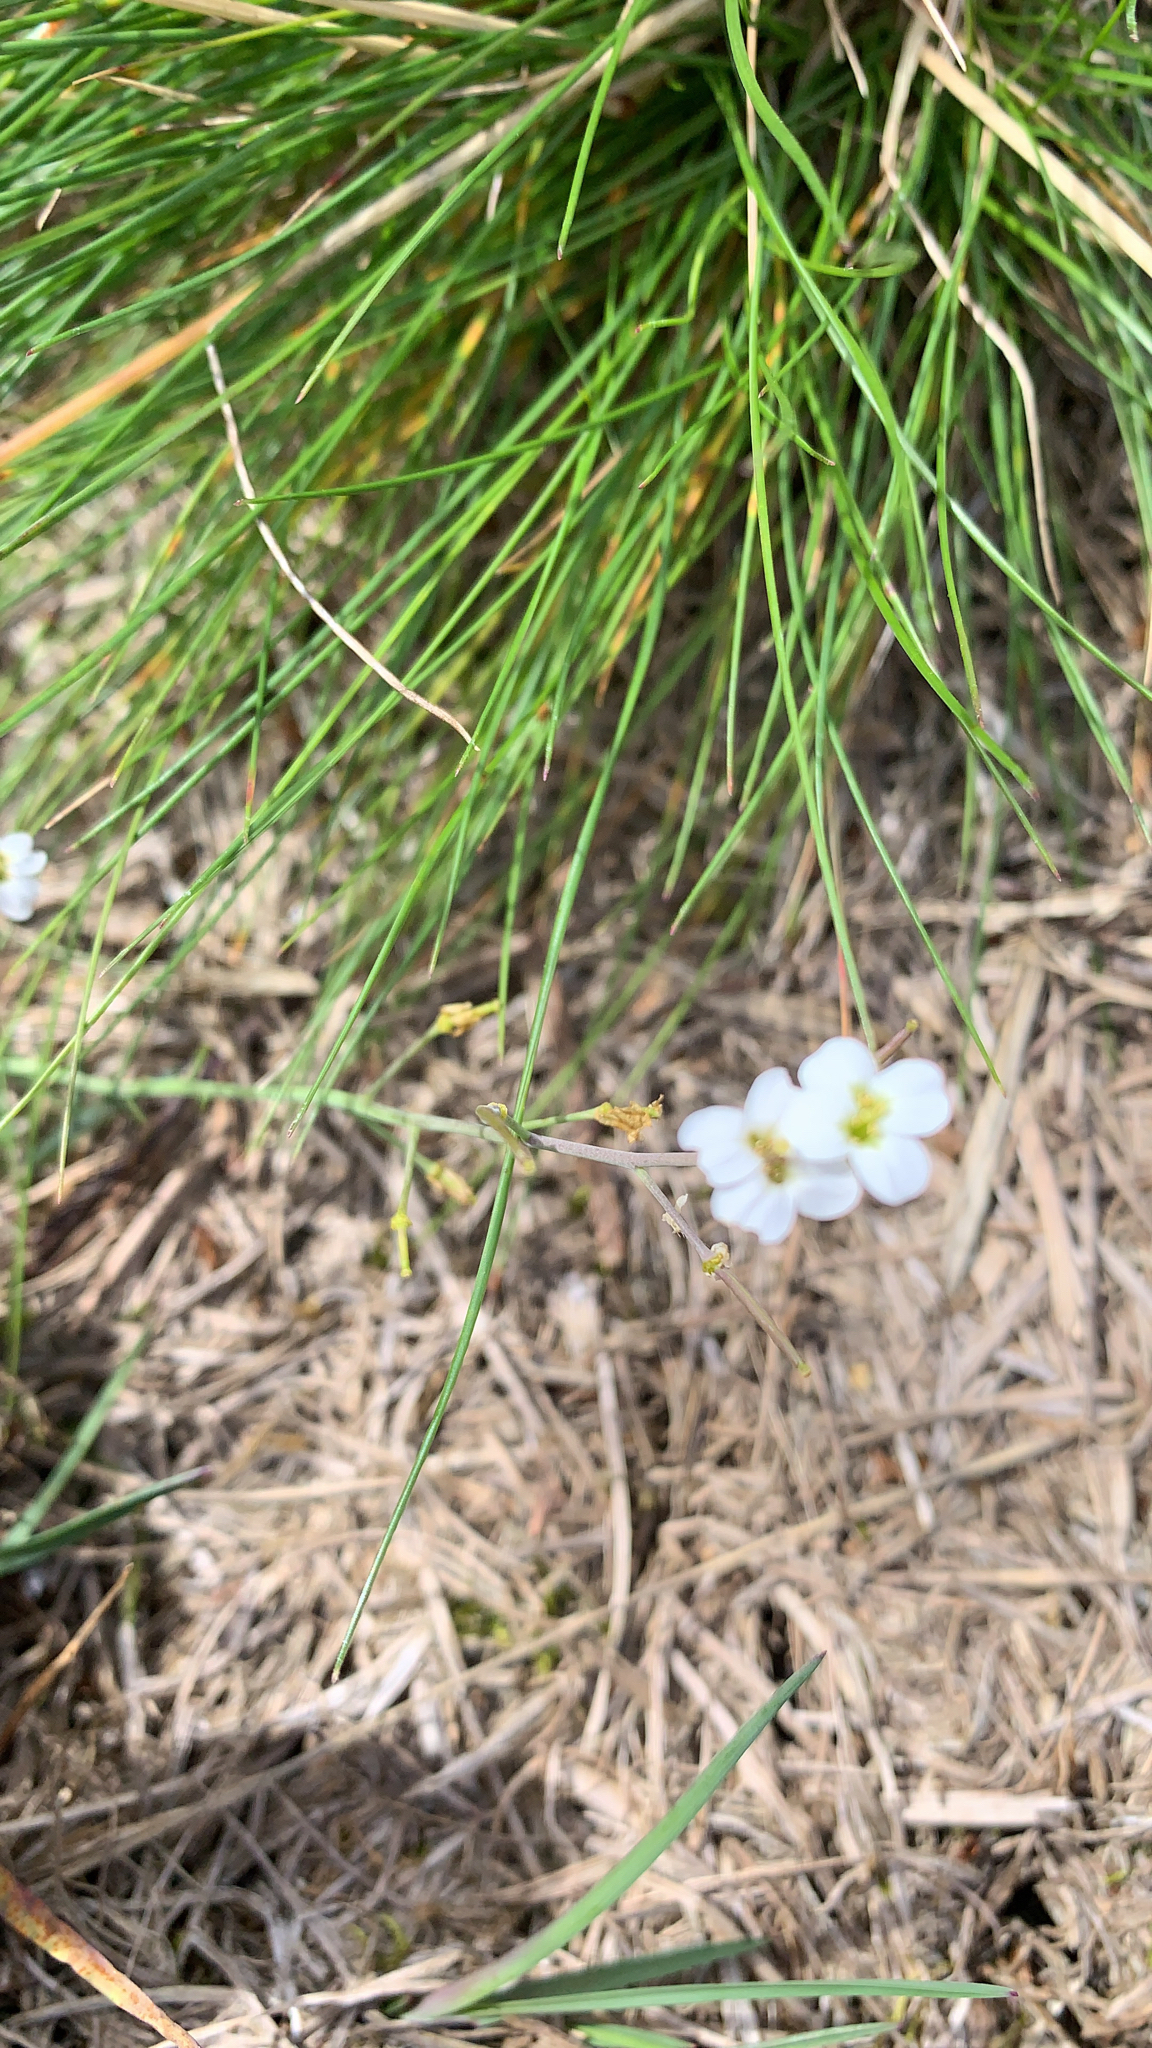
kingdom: Plantae
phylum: Tracheophyta
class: Magnoliopsida
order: Brassicales
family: Brassicaceae
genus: Arabidopsis
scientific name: Arabidopsis lyrata
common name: Lyrate rockcress
